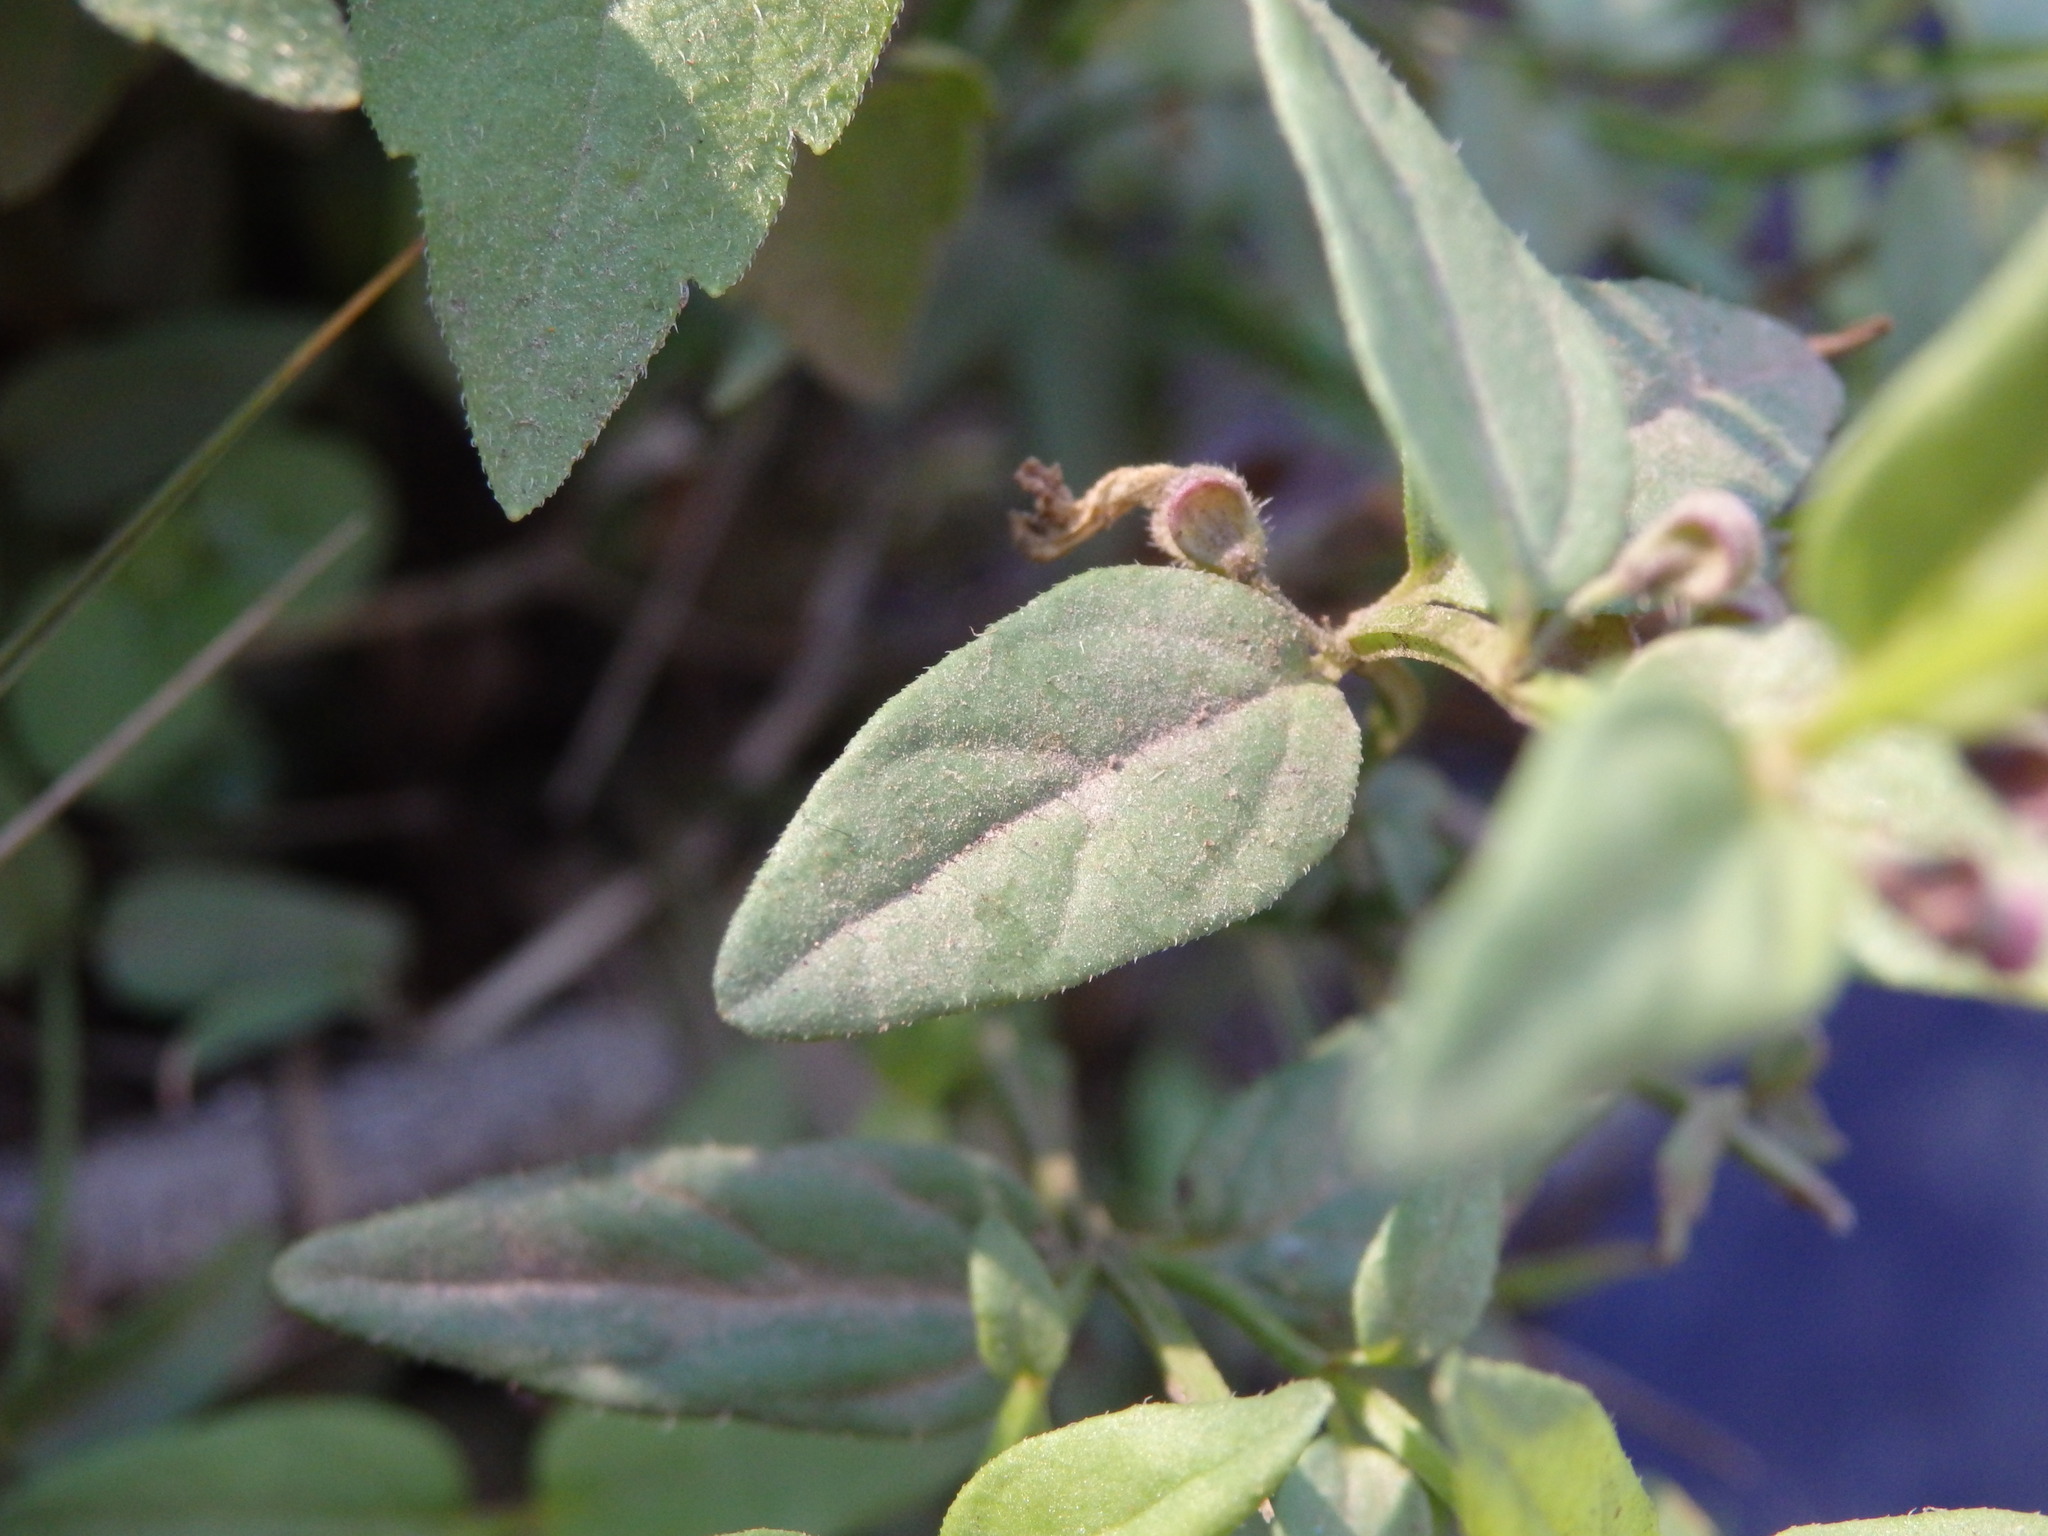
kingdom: Plantae
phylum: Tracheophyta
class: Magnoliopsida
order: Lamiales
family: Lamiaceae
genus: Scutellaria
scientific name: Scutellaria minor
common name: Lesser skullcap
